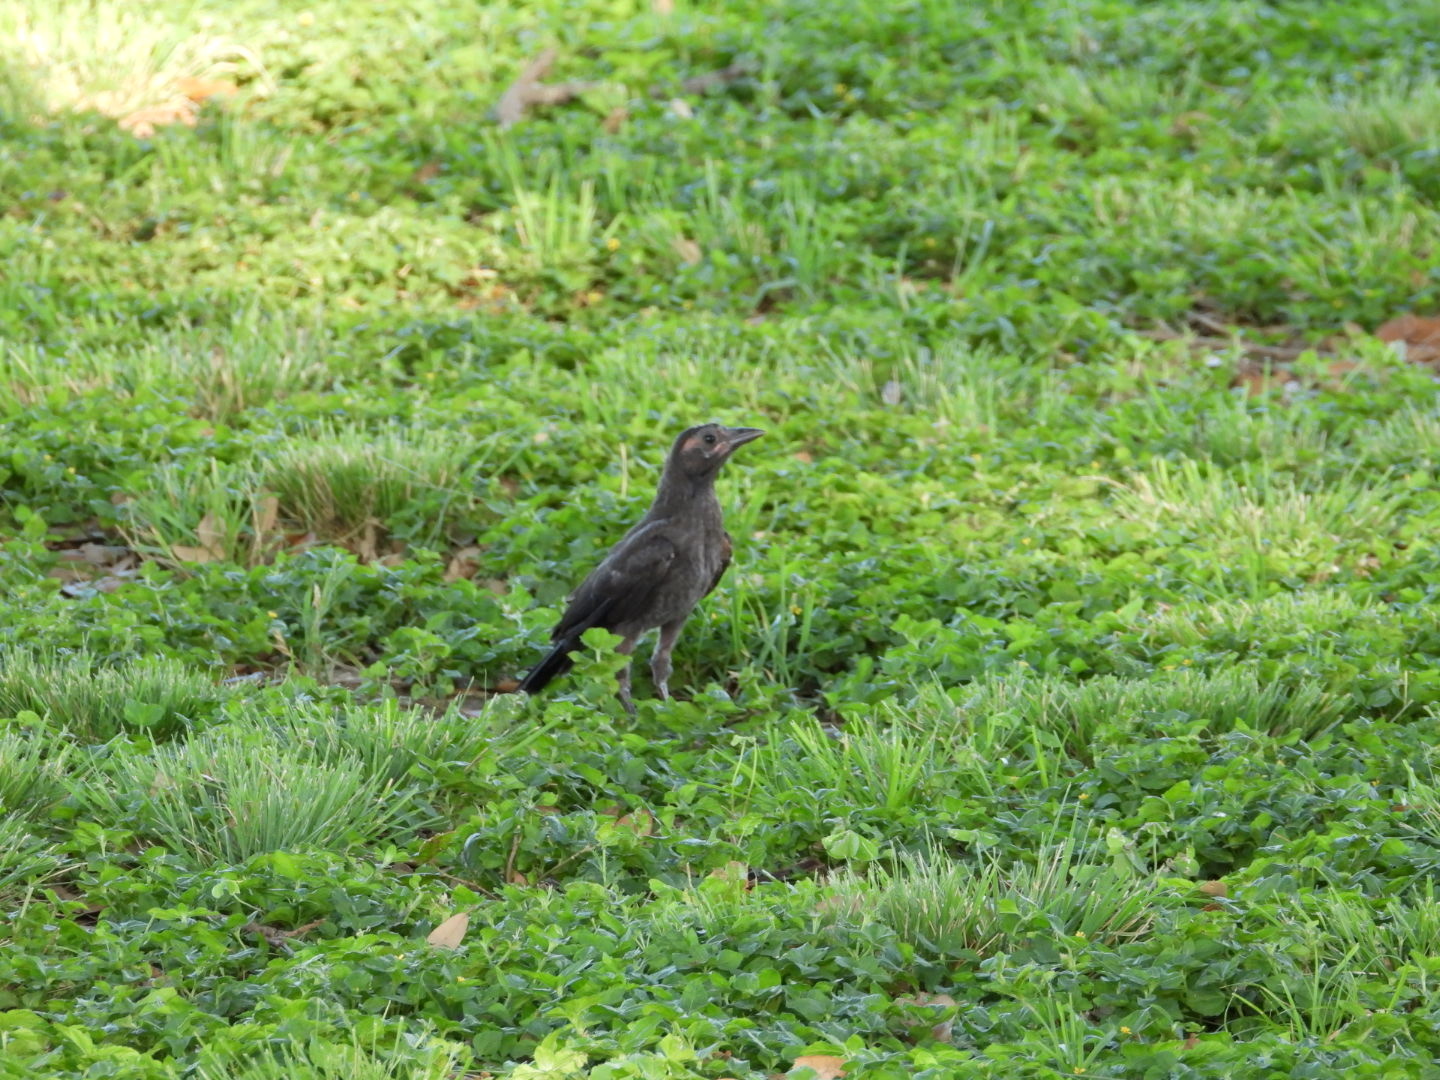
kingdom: Animalia
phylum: Chordata
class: Aves
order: Passeriformes
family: Icteridae
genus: Quiscalus
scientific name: Quiscalus mexicanus
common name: Great-tailed grackle
